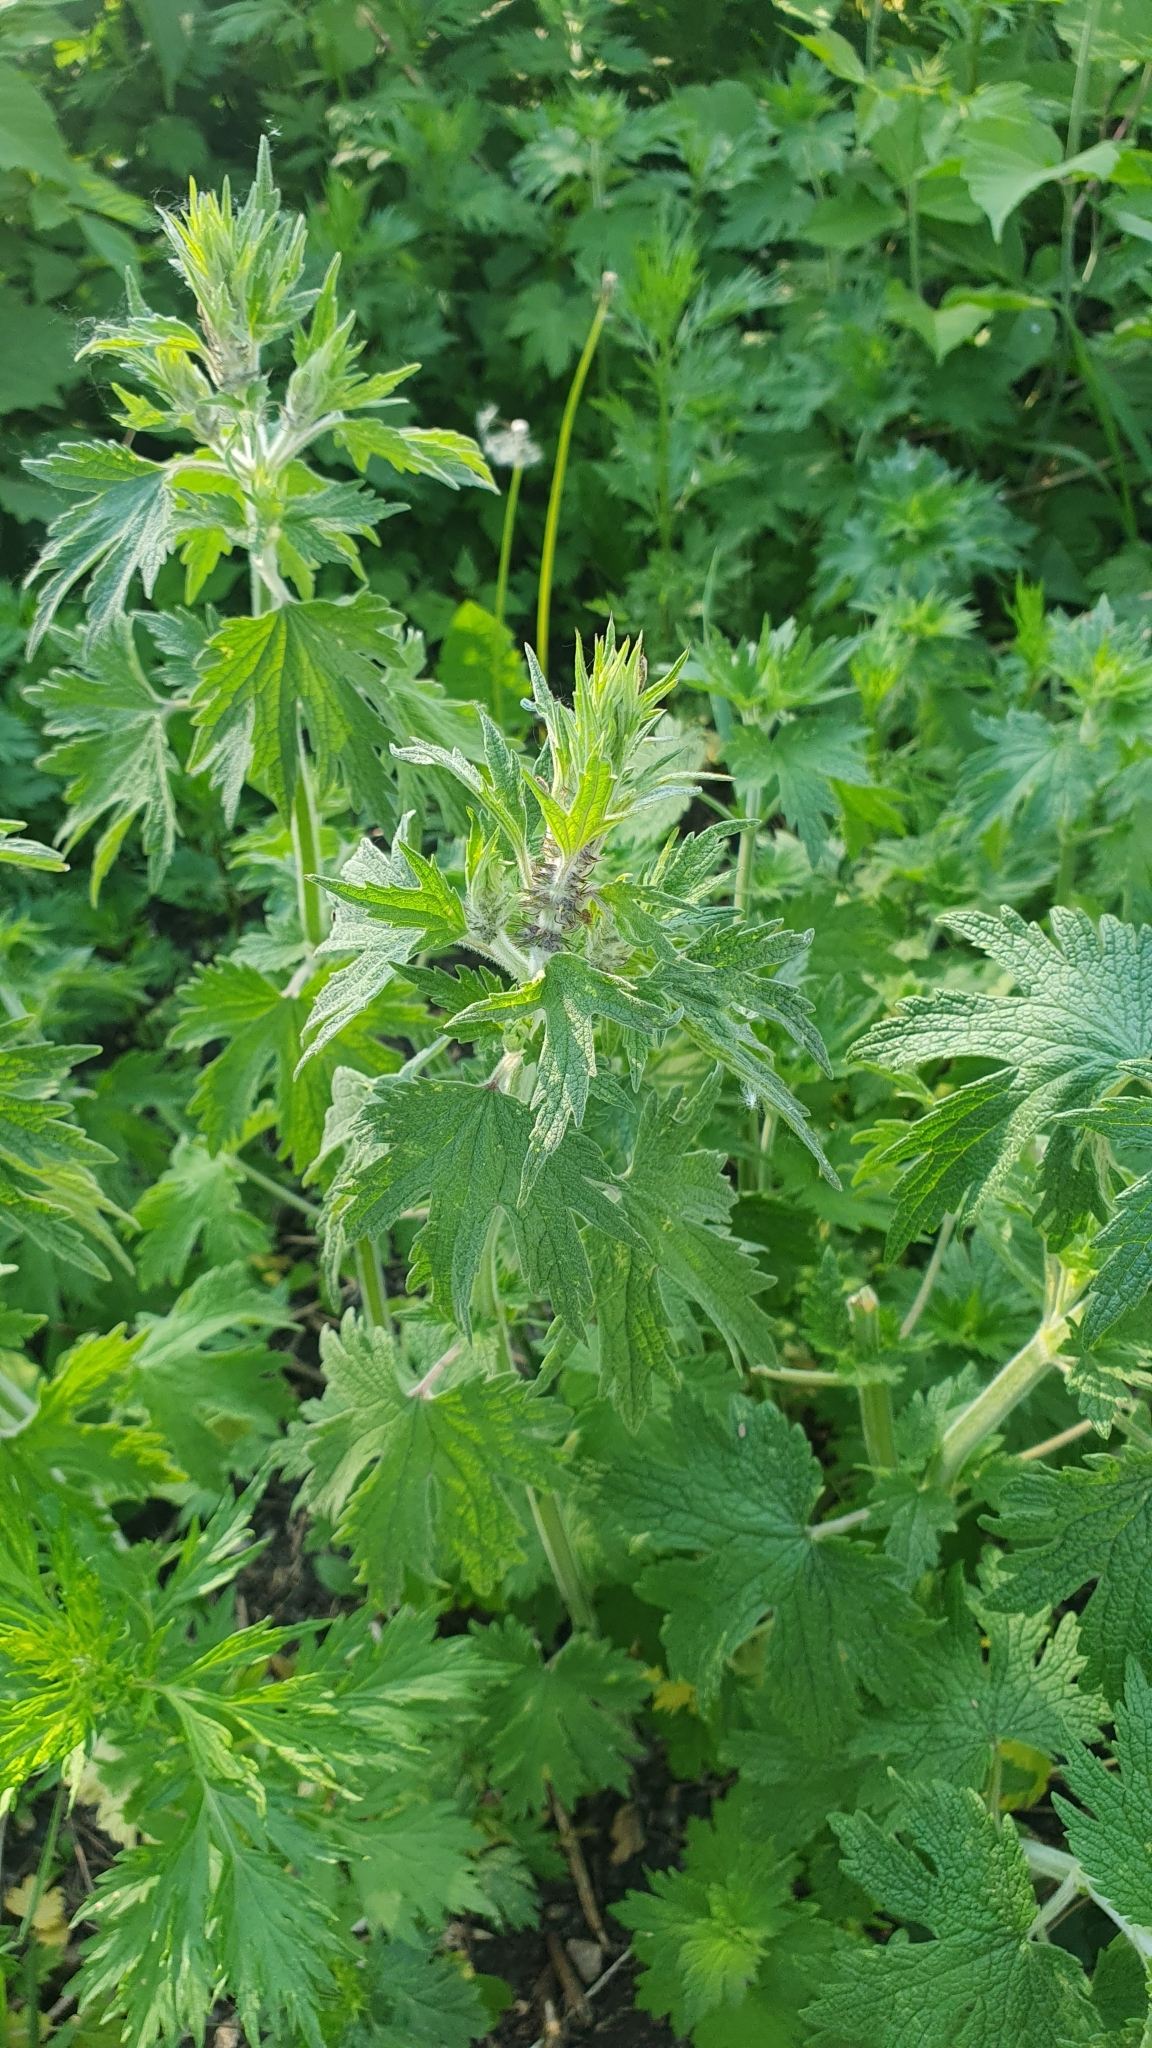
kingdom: Plantae
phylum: Tracheophyta
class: Magnoliopsida
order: Lamiales
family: Lamiaceae
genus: Leonurus
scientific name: Leonurus quinquelobatus
